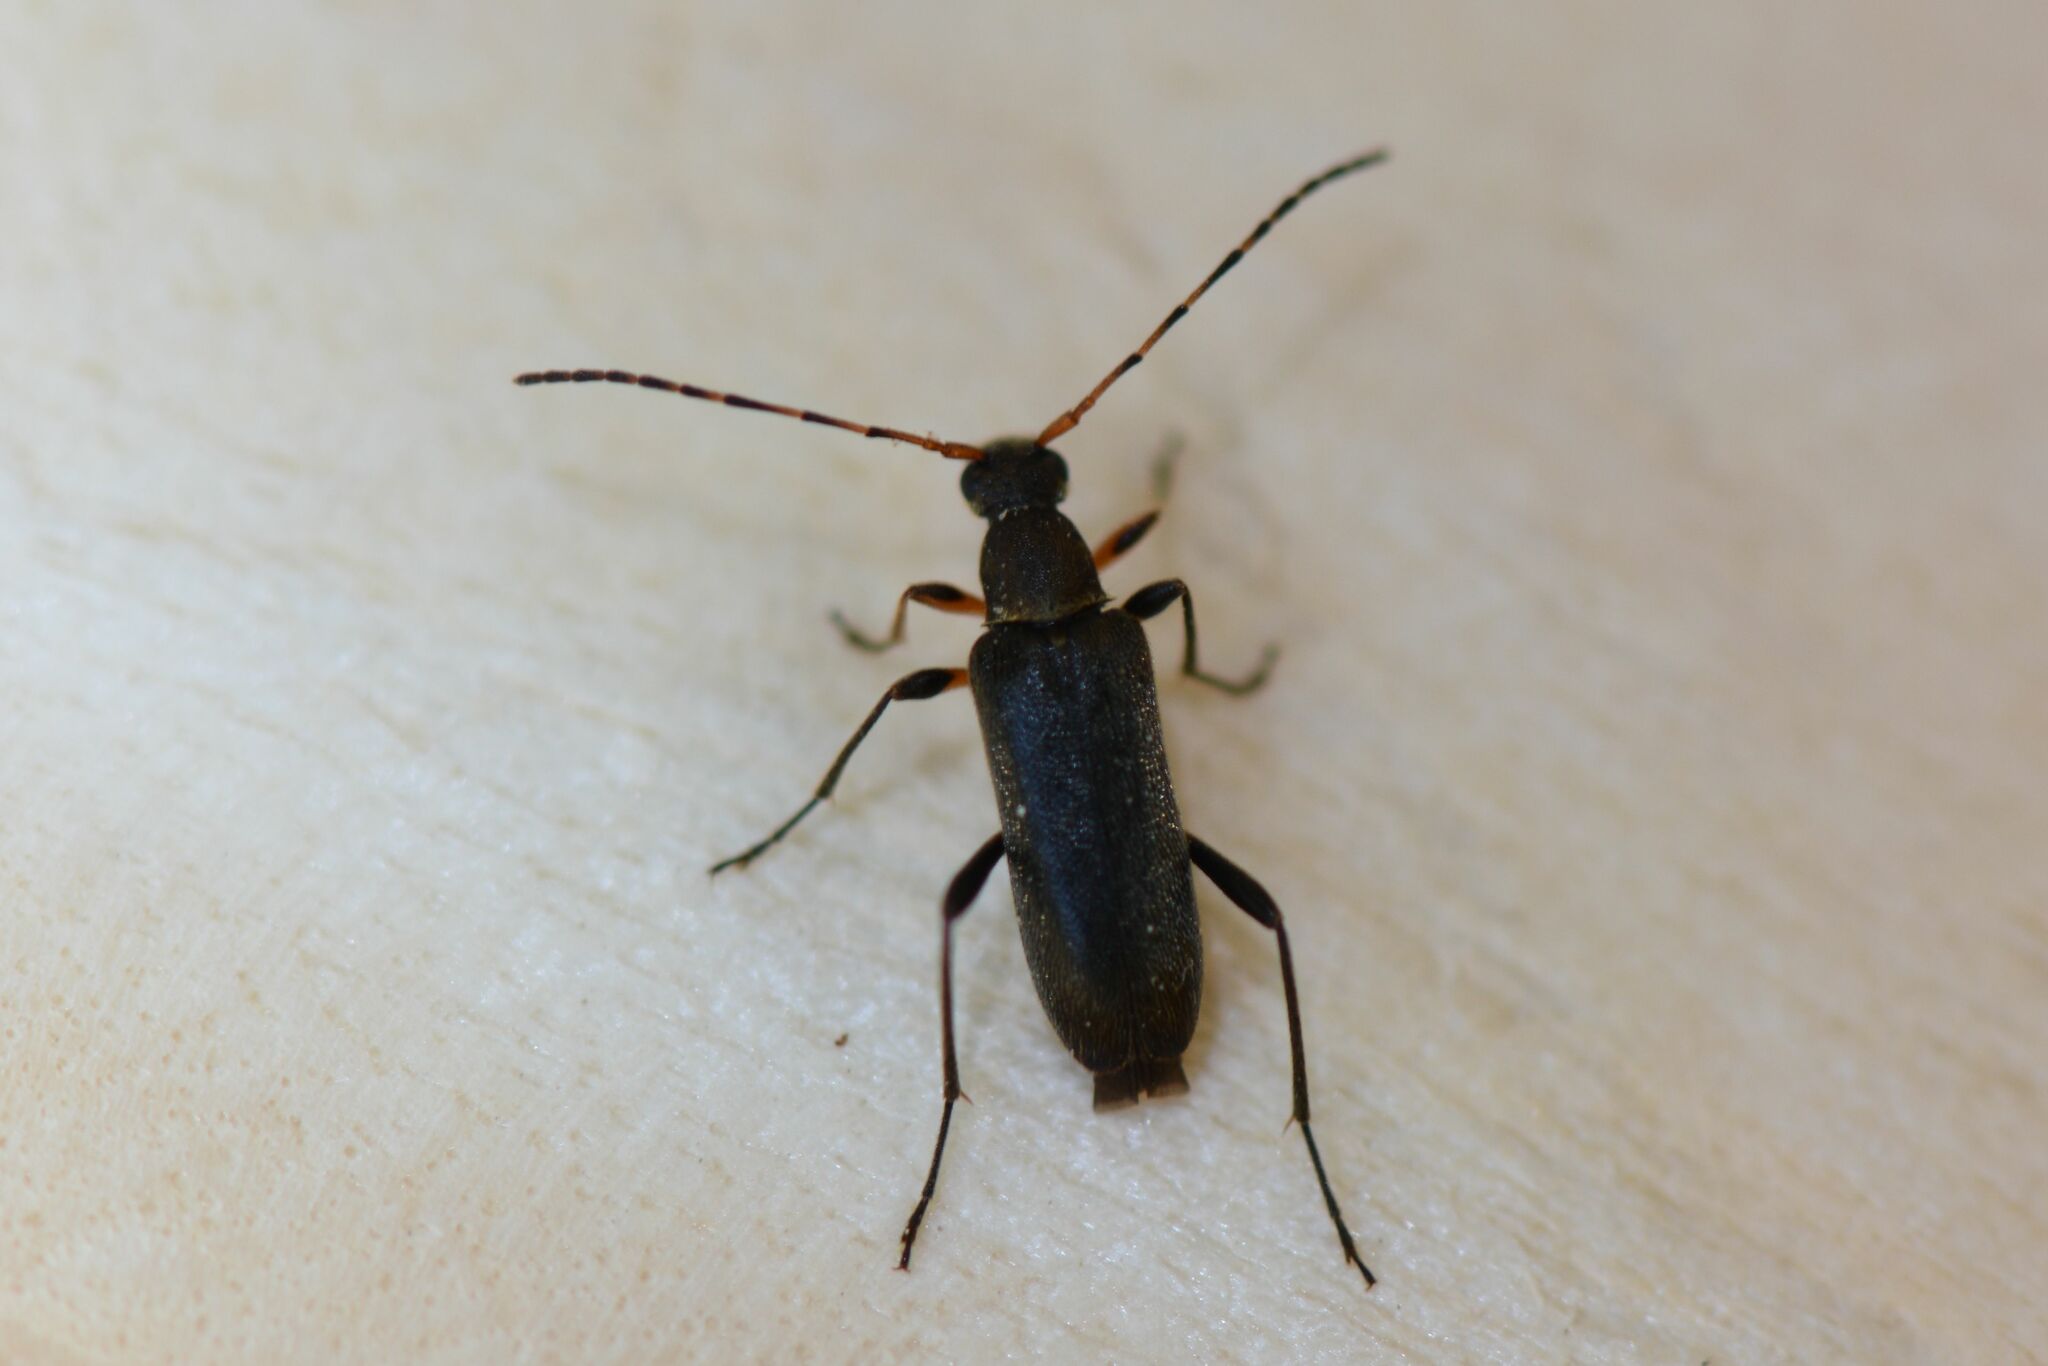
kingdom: Animalia
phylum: Arthropoda
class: Insecta
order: Coleoptera
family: Cerambycidae
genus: Grammoptera
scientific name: Grammoptera ruficornis
